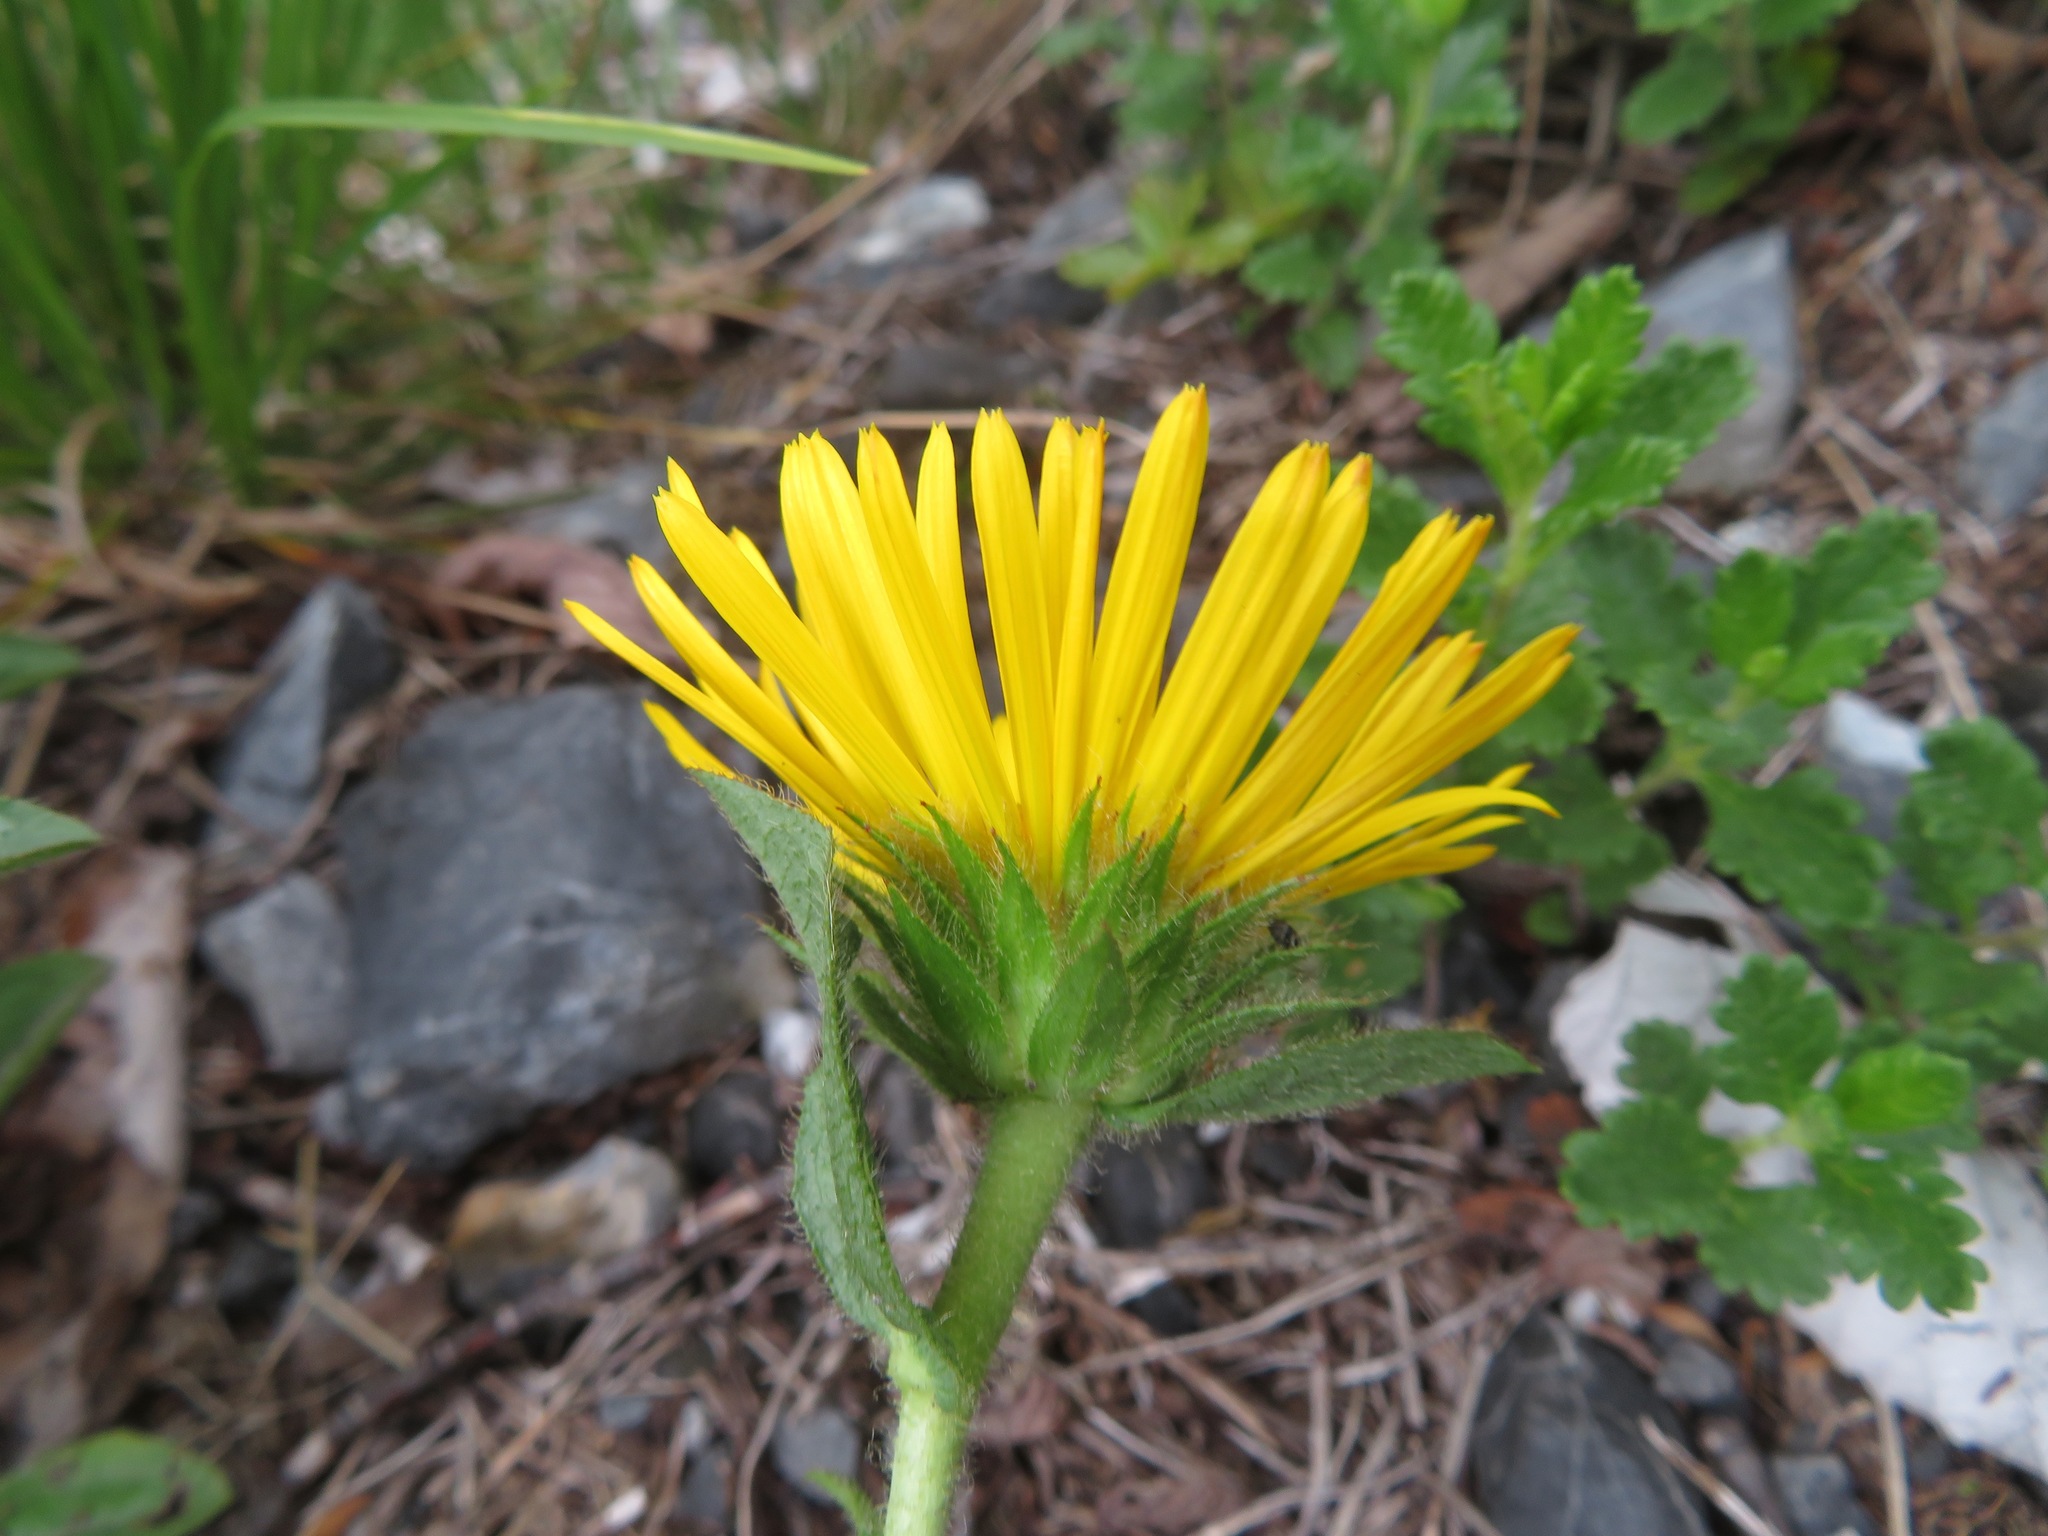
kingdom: Plantae
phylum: Tracheophyta
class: Magnoliopsida
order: Asterales
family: Asteraceae
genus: Pentanema
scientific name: Pentanema hirtum
